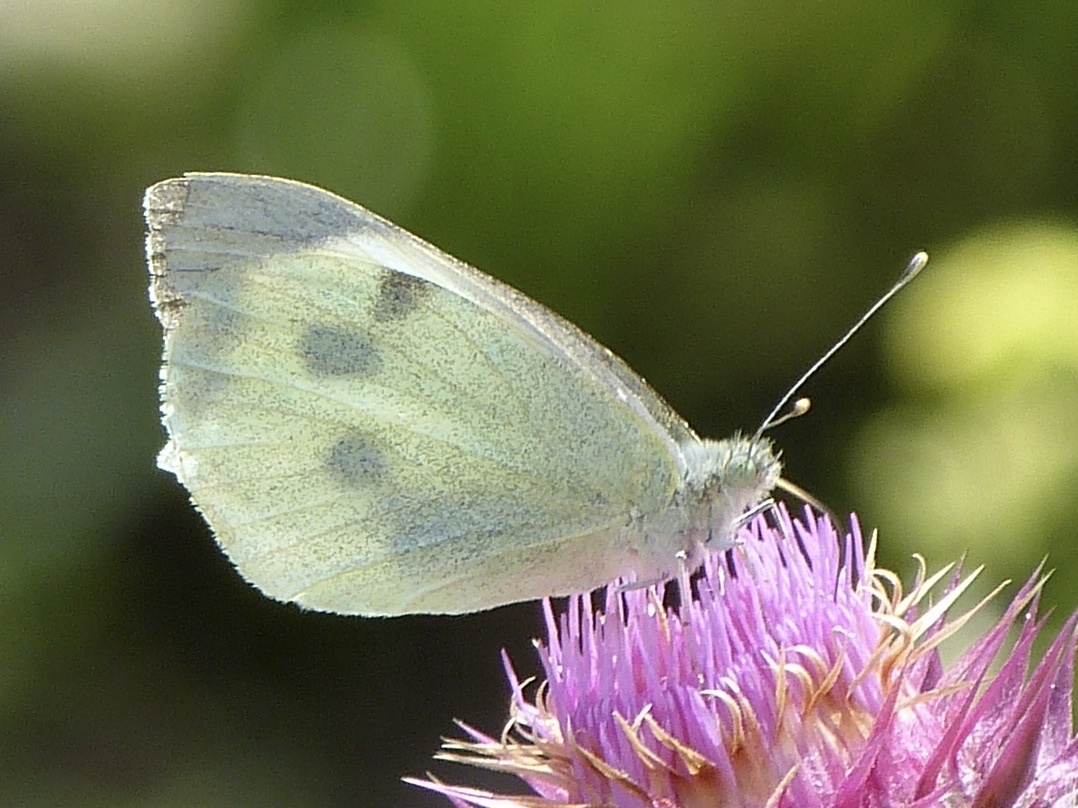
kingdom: Animalia
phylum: Arthropoda
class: Insecta
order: Lepidoptera
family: Pieridae
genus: Pieris
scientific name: Pieris brassicae
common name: Large white
